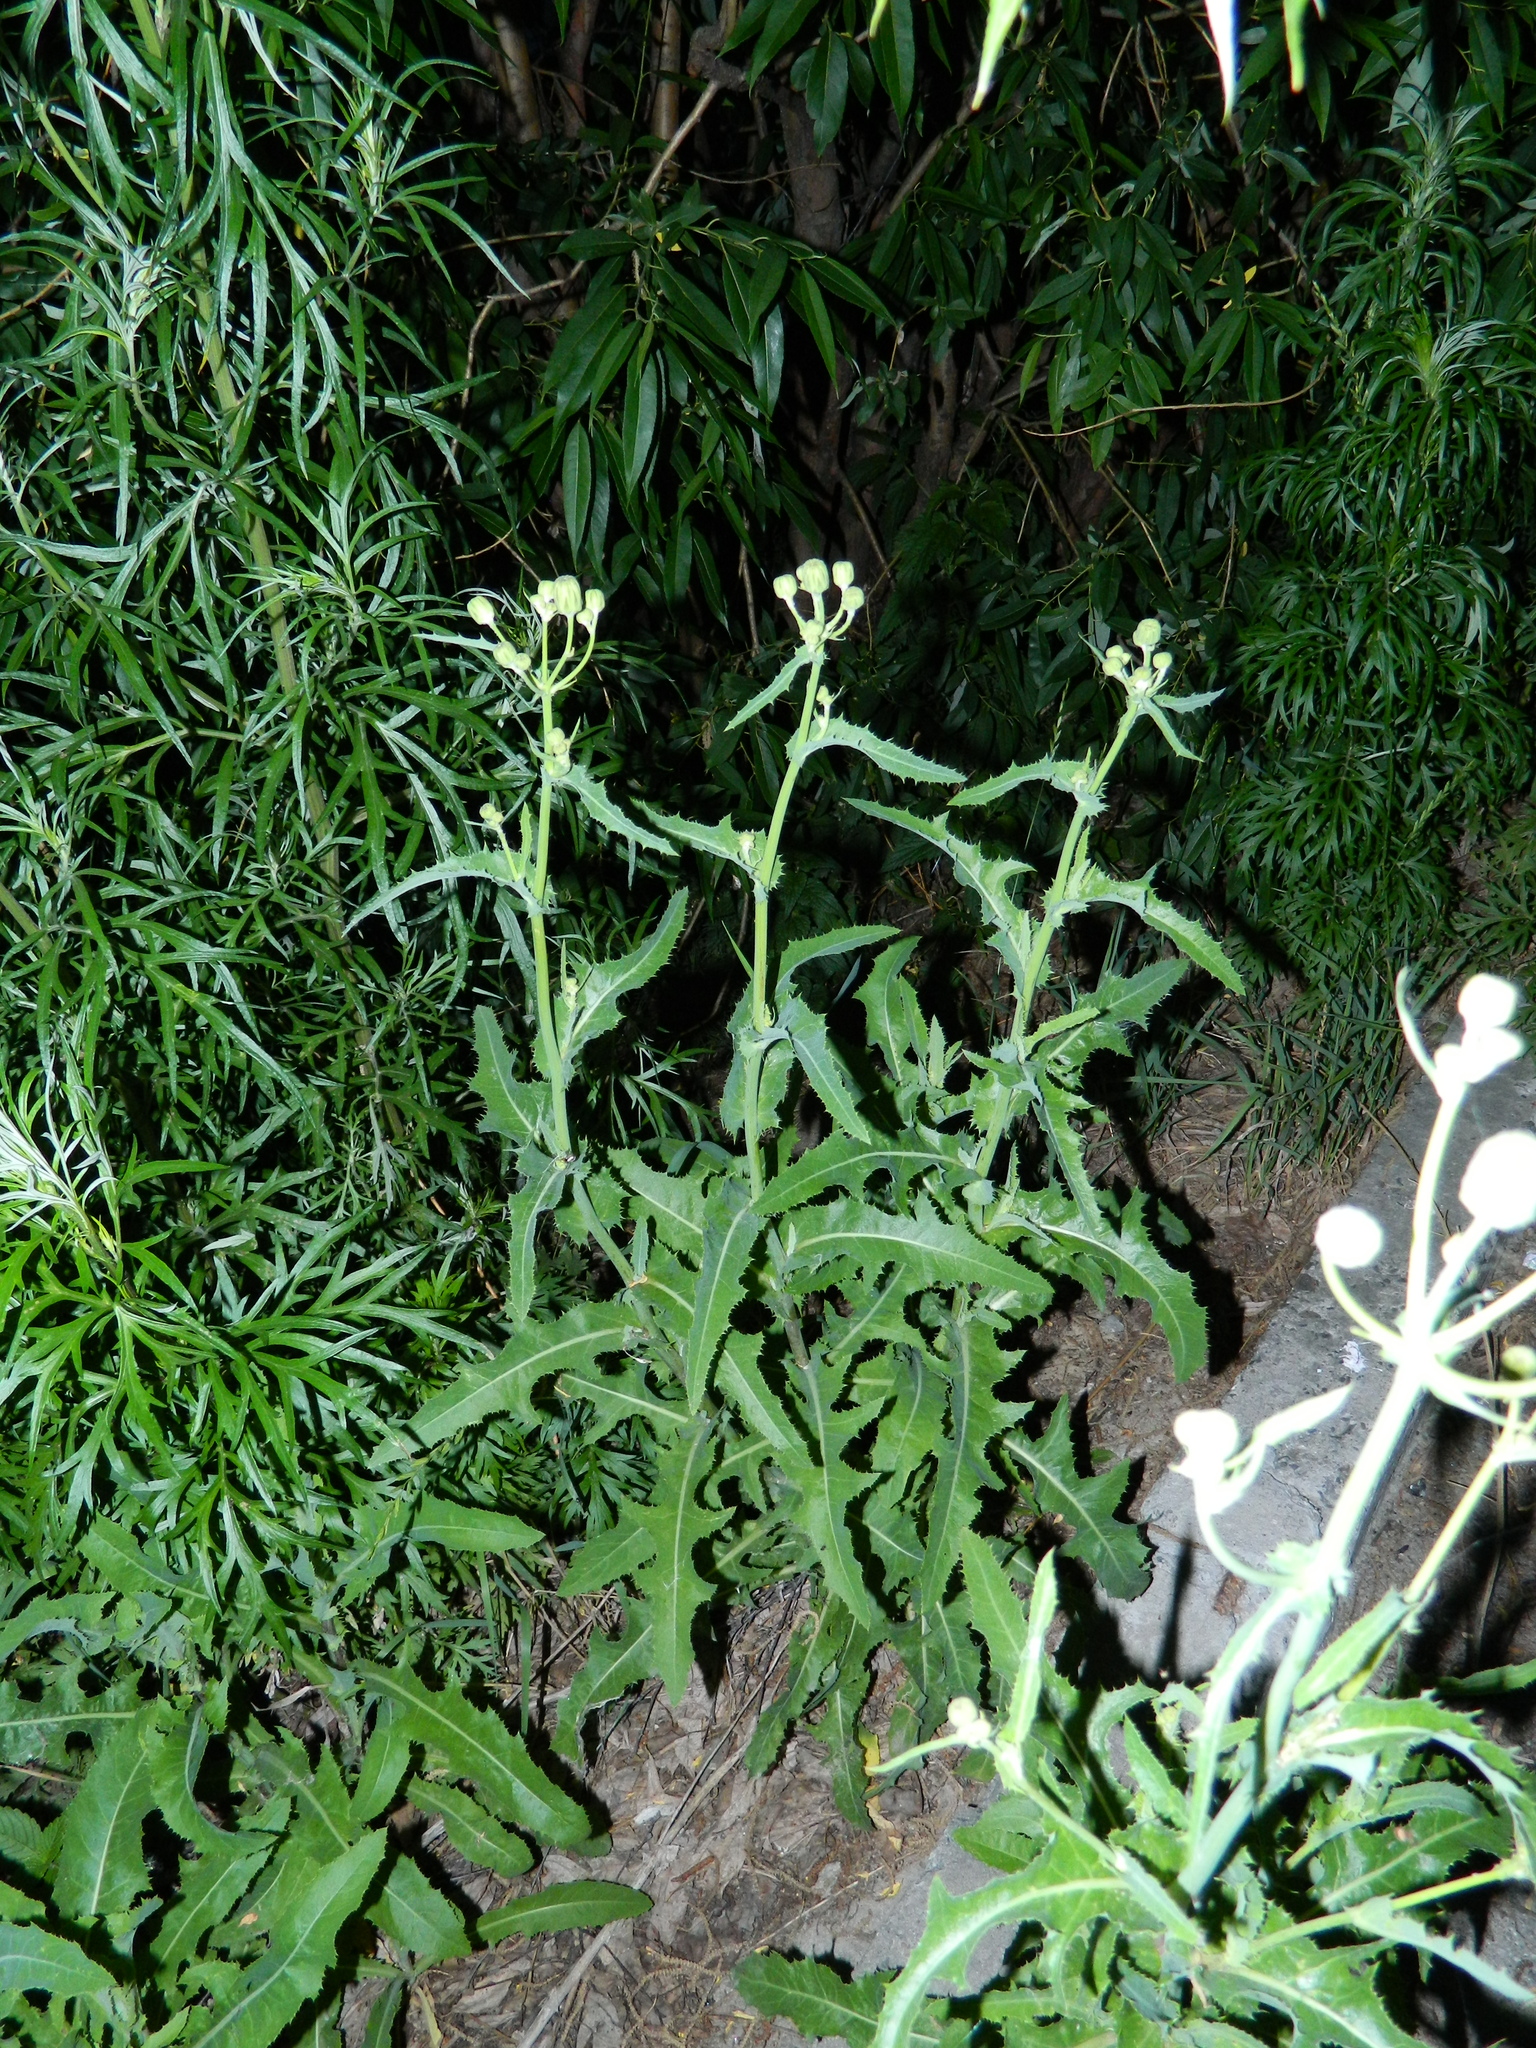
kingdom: Plantae
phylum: Tracheophyta
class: Magnoliopsida
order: Asterales
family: Asteraceae
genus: Sonchus
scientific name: Sonchus arvensis
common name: Perennial sow-thistle
